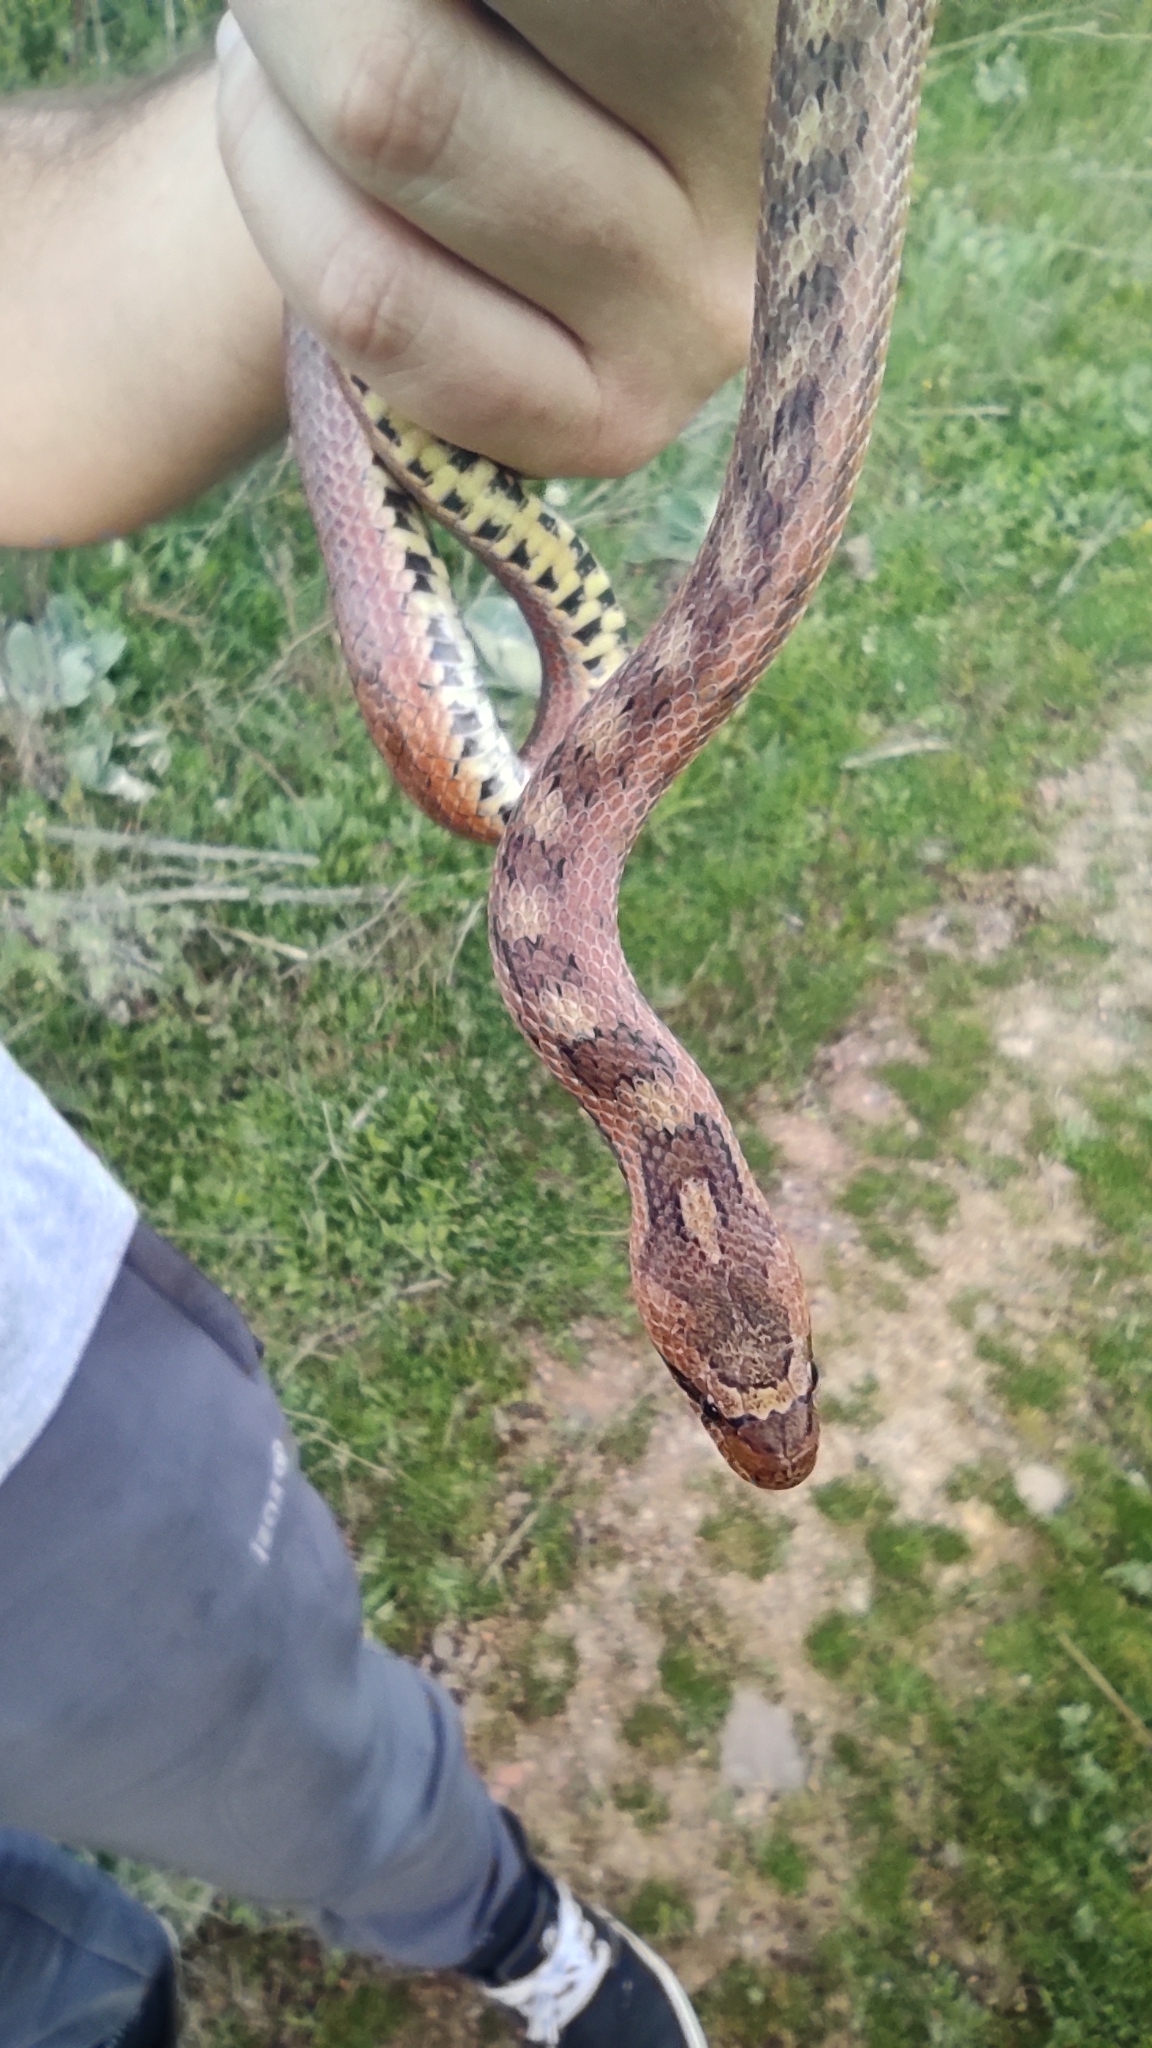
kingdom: Animalia
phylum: Chordata
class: Squamata
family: Colubridae
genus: Coronella
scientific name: Coronella girondica
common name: Southern smooth snake
